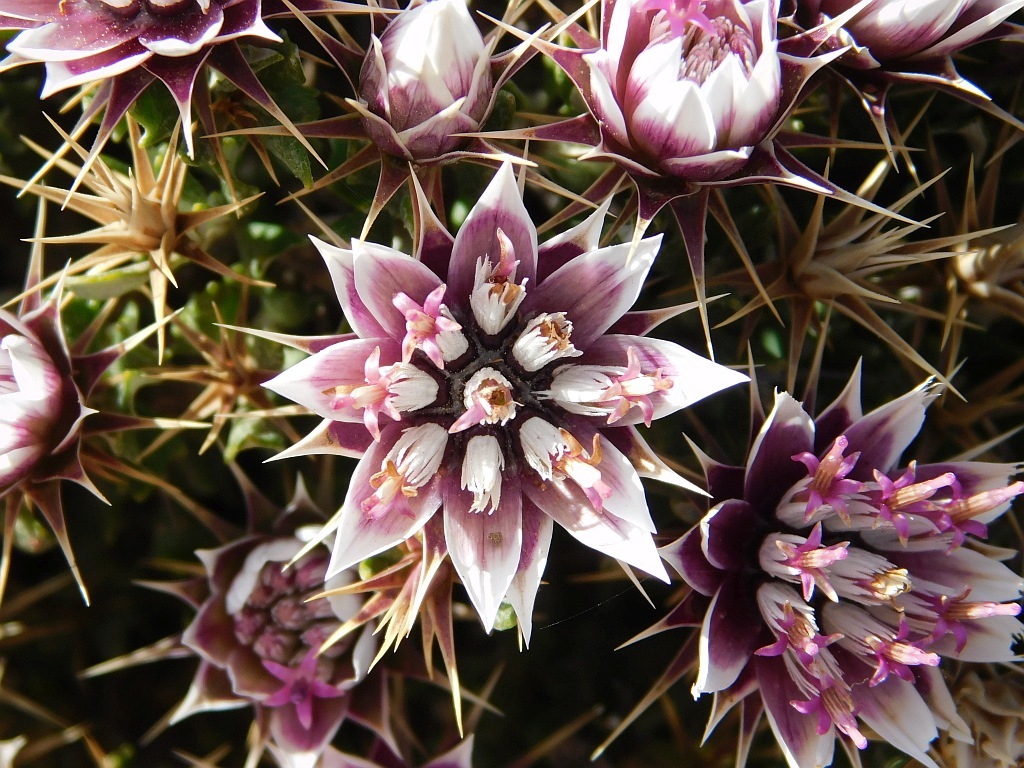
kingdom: Plantae
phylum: Tracheophyta
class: Magnoliopsida
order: Asterales
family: Asteraceae
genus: Macledium
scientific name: Macledium spinosum
